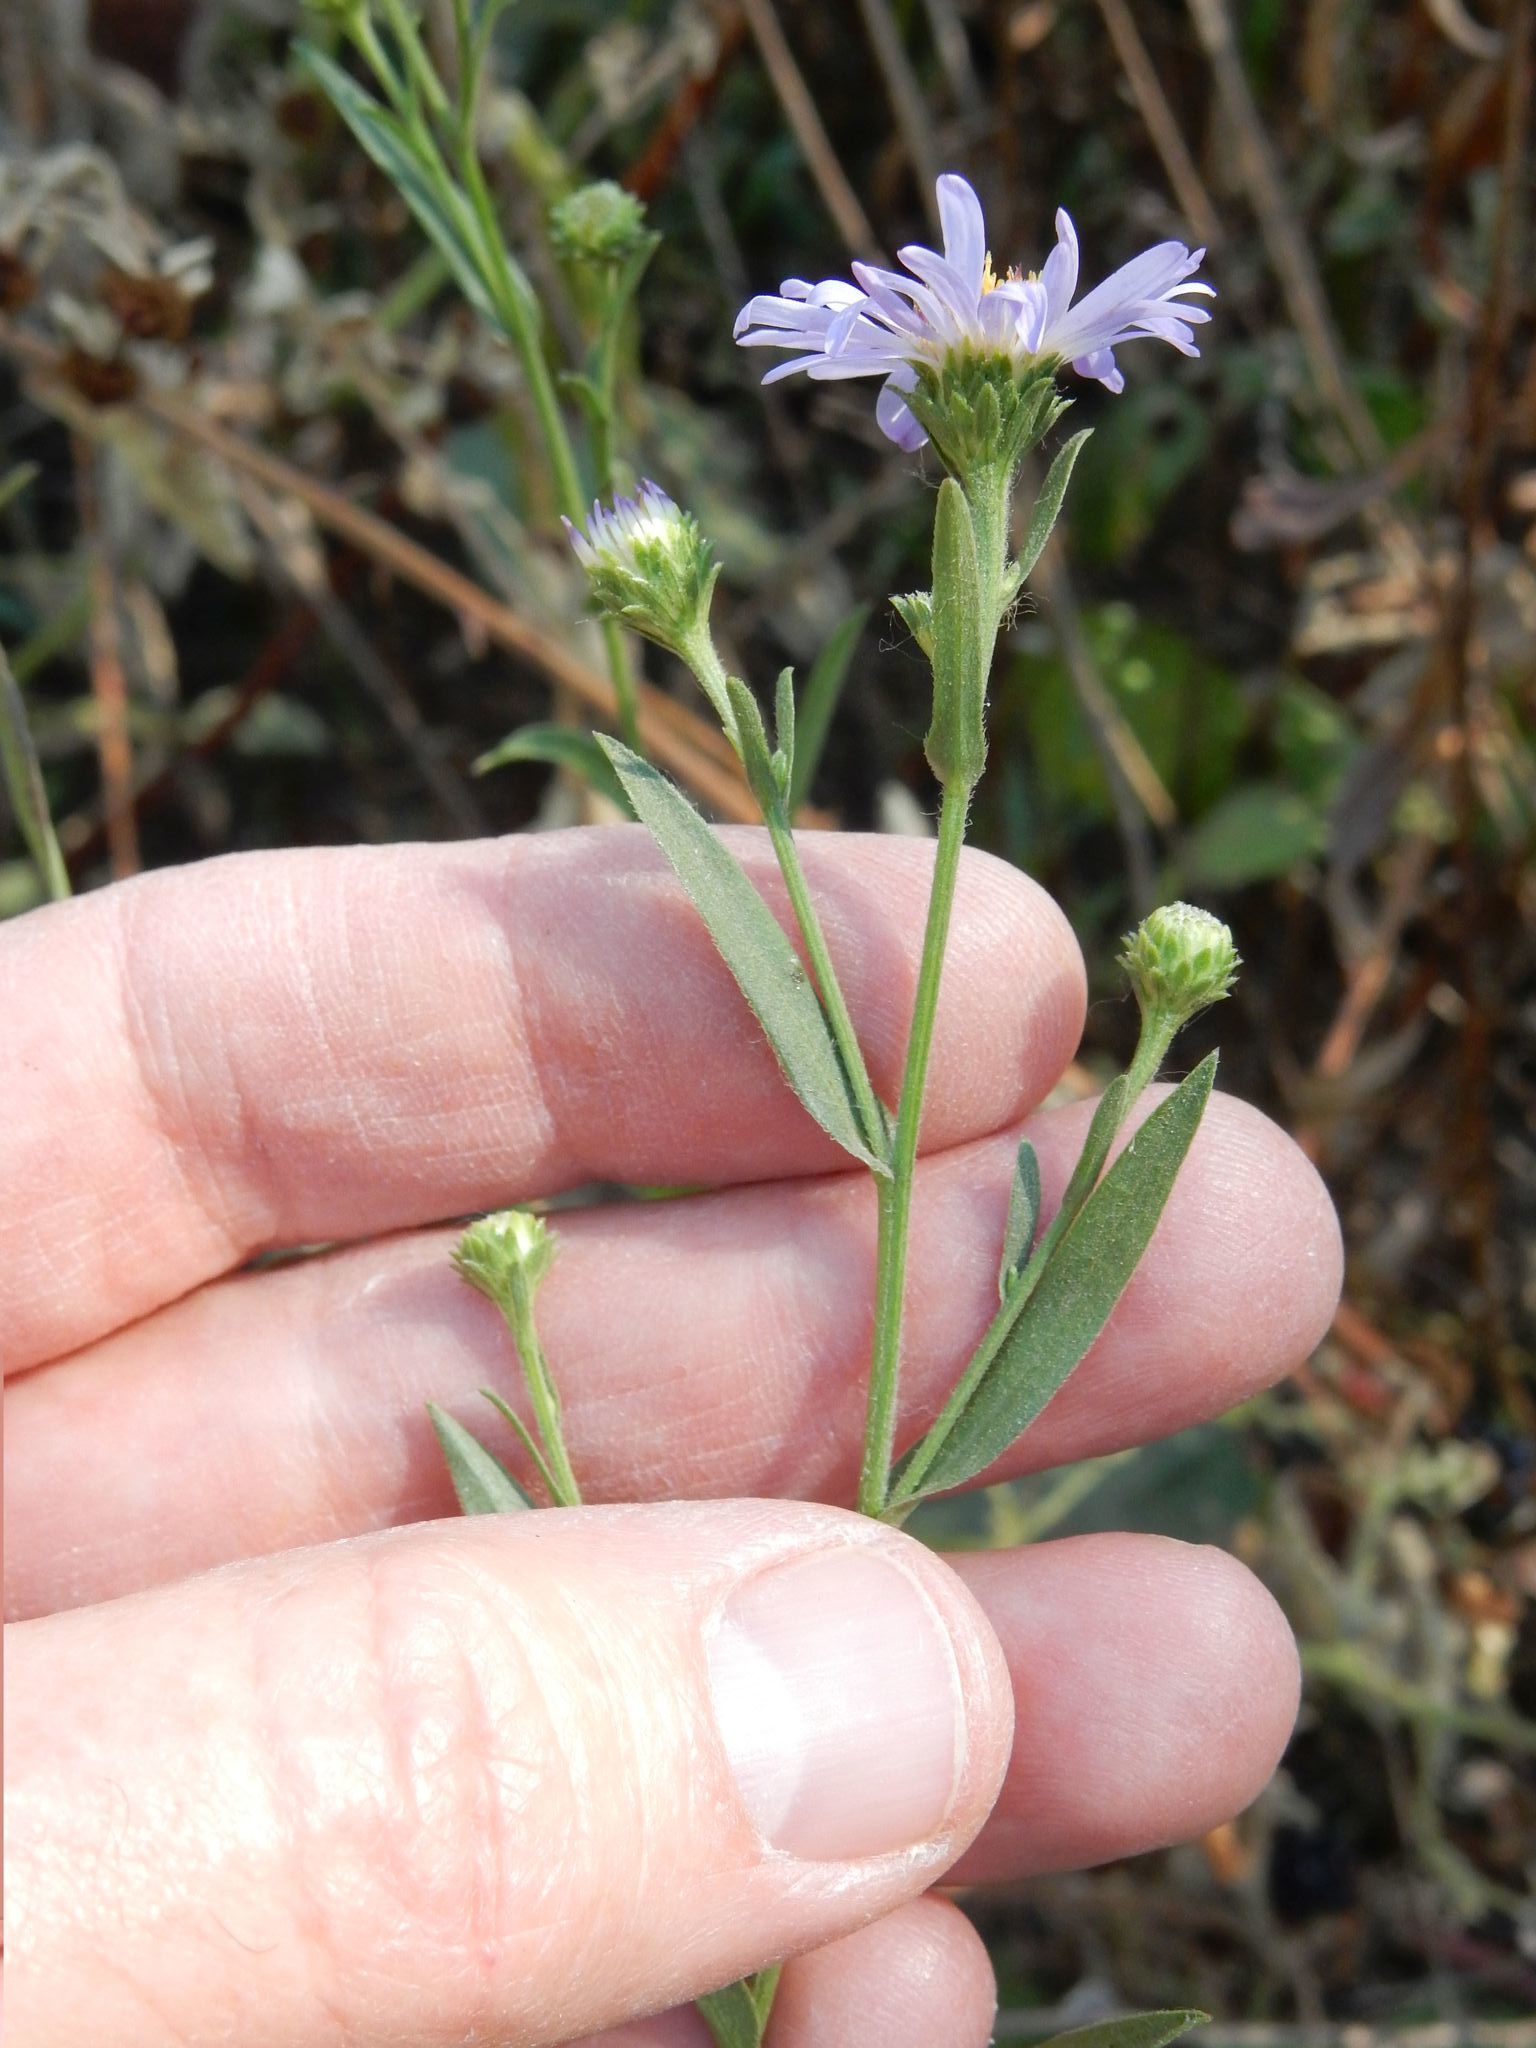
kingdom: Plantae
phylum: Tracheophyta
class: Magnoliopsida
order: Asterales
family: Asteraceae
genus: Symphyotrichum
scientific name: Symphyotrichum subspicatum
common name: Douglas' aster
